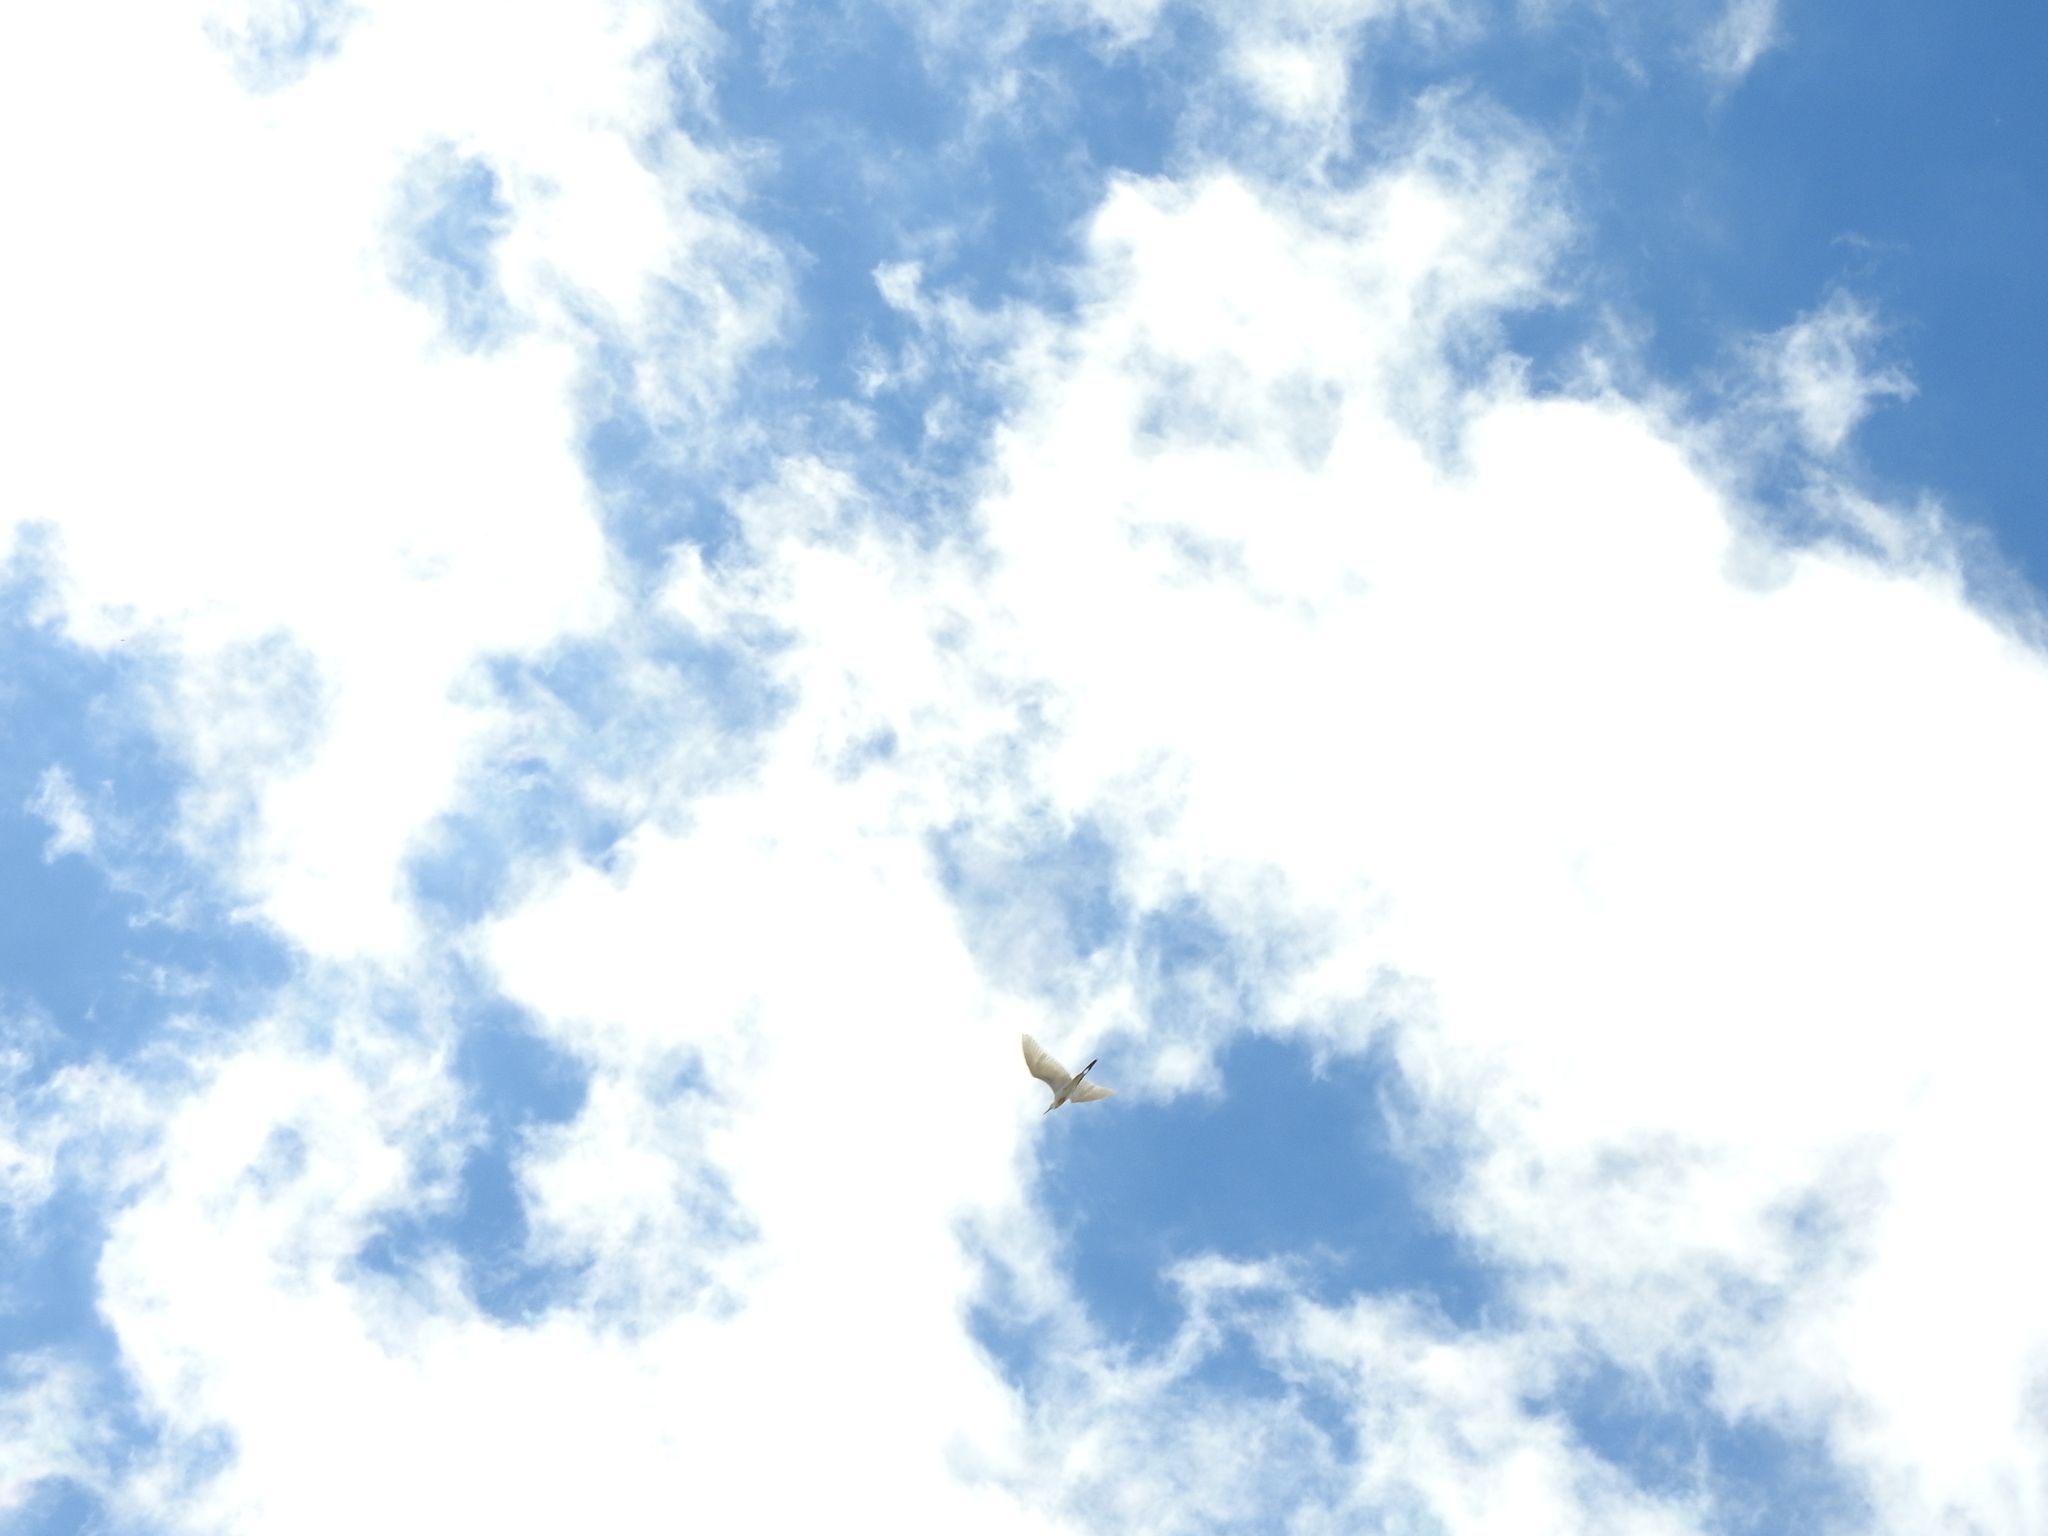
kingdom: Animalia
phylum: Chordata
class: Aves
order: Pelecaniformes
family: Ardeidae
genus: Bubulcus
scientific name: Bubulcus ibis
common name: Cattle egret
